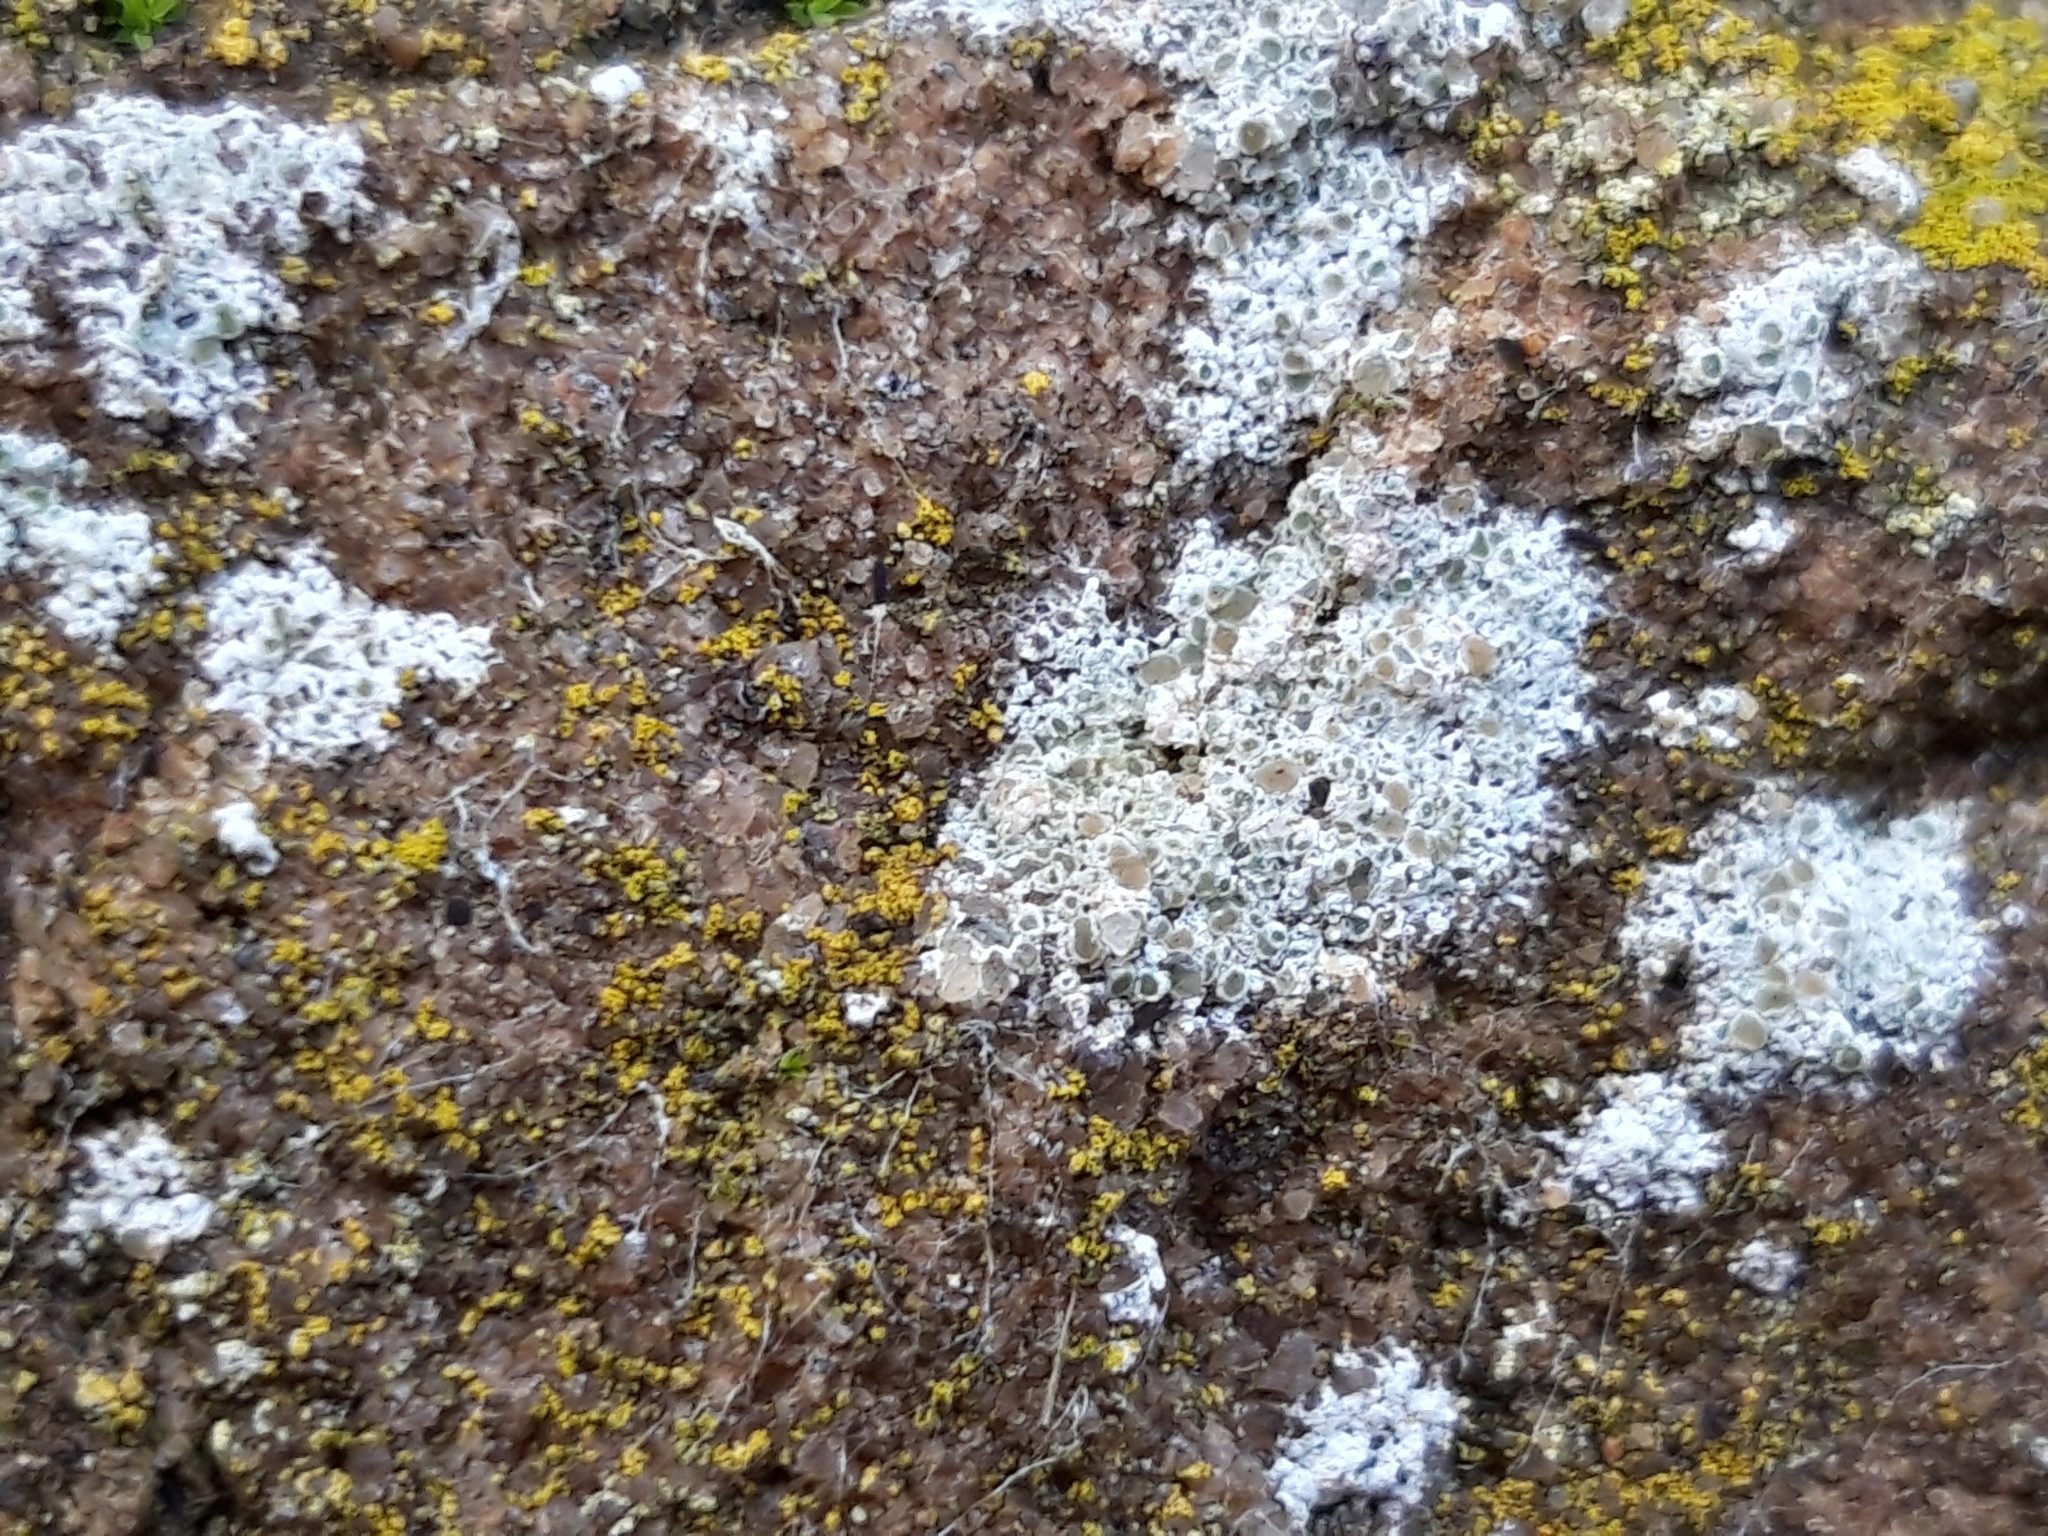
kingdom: Fungi
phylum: Ascomycota
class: Lecanoromycetes
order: Lecanorales
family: Lecanoraceae
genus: Polyozosia
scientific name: Polyozosia albescens
